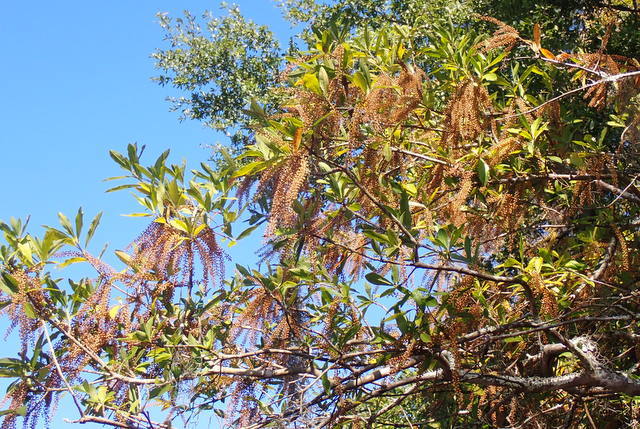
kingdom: Plantae
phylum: Tracheophyta
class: Magnoliopsida
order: Ericales
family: Cyrillaceae
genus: Cyrilla
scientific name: Cyrilla racemiflora
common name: Black titi
